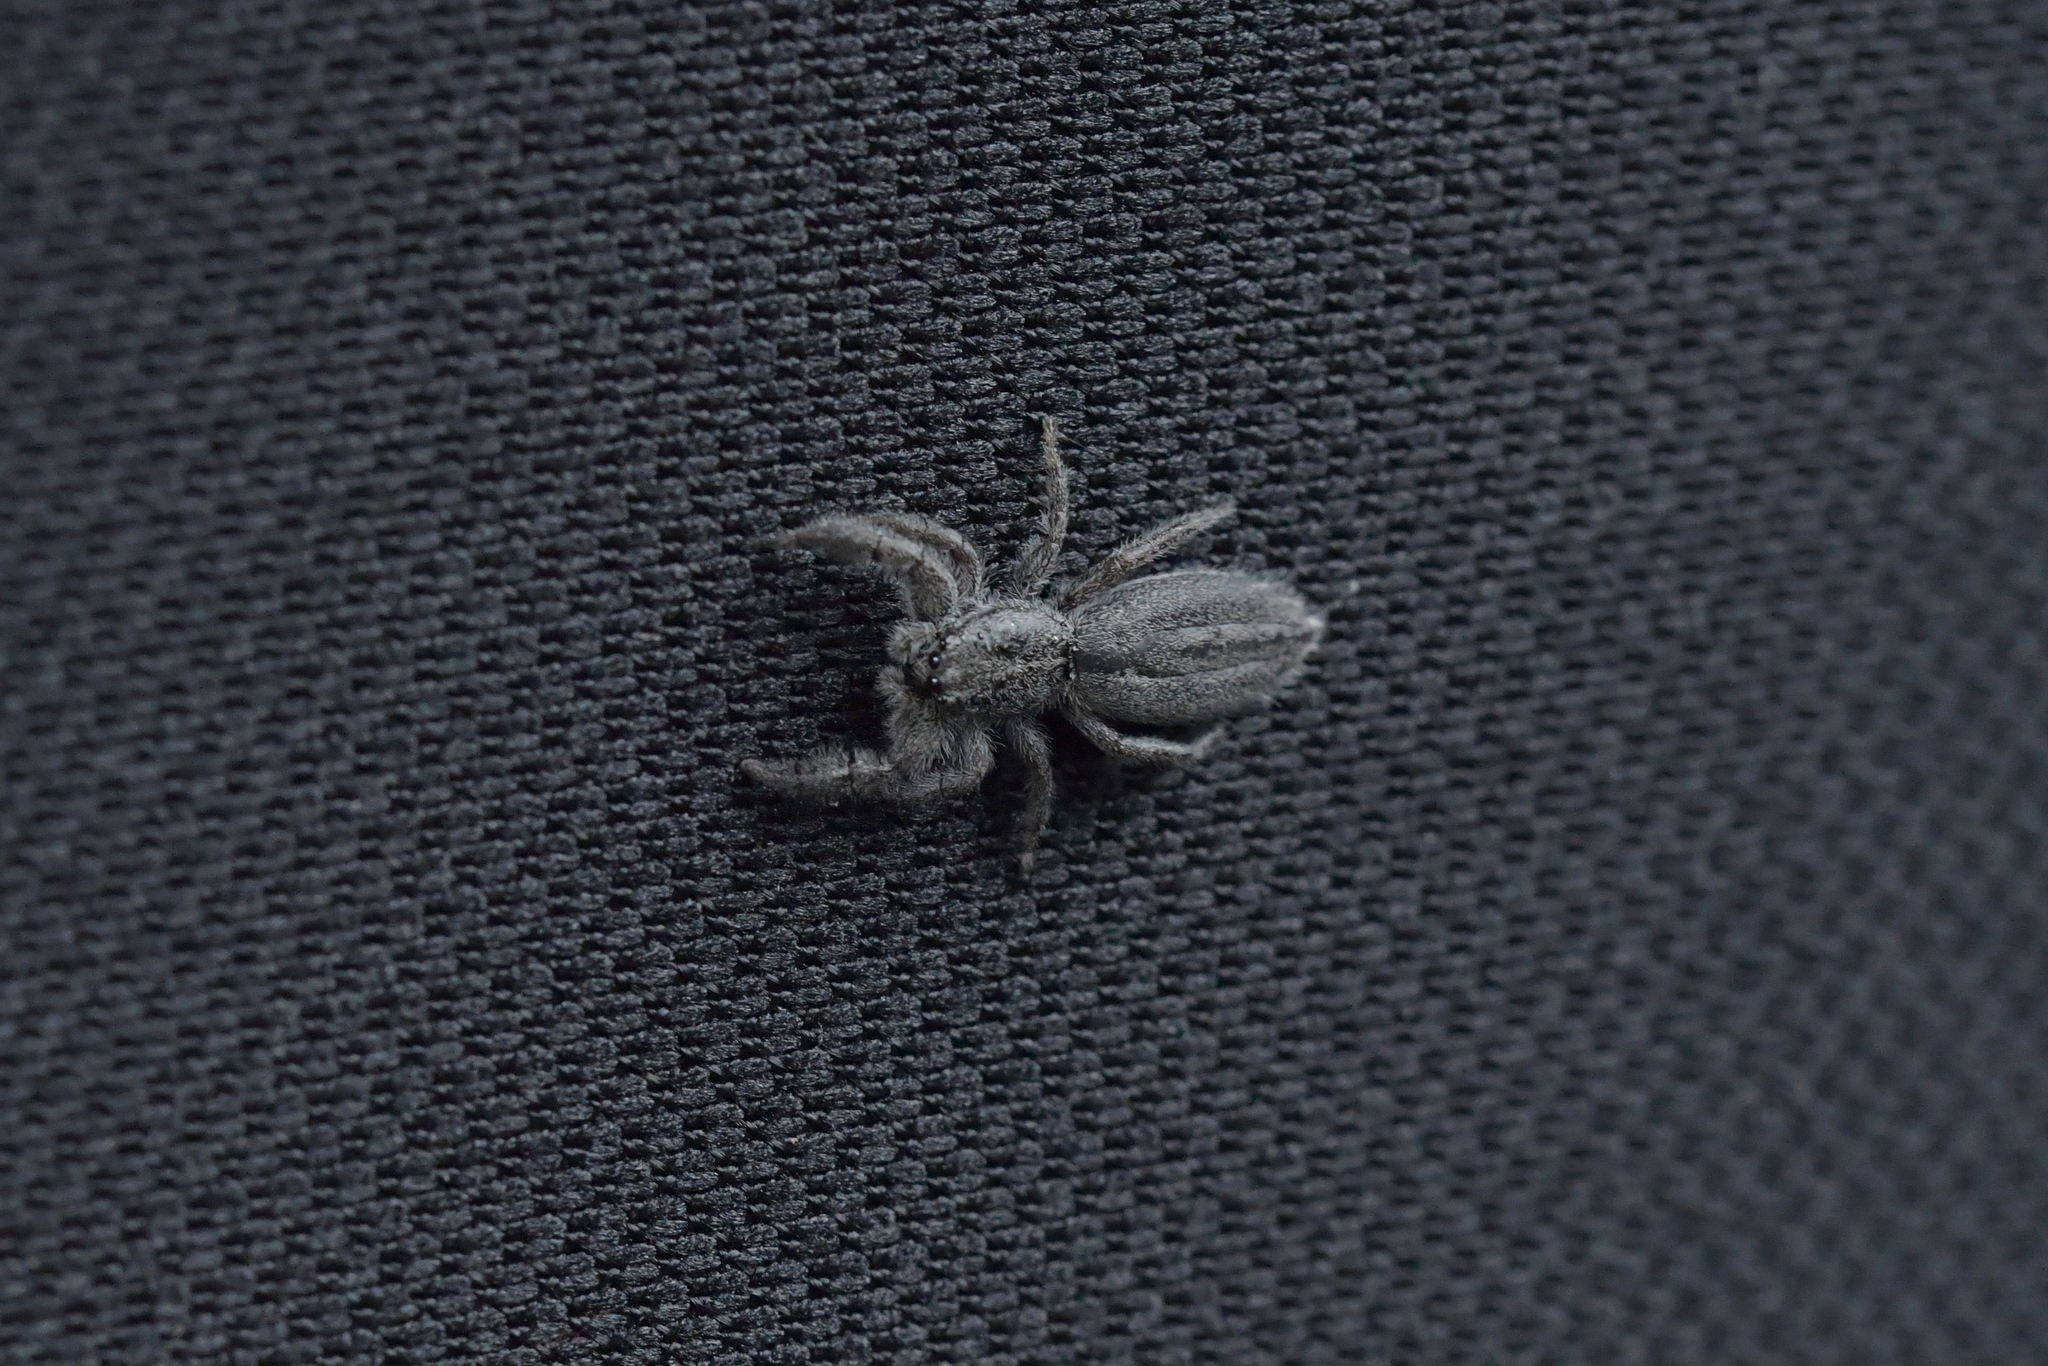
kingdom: Animalia
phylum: Arthropoda
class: Arachnida
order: Araneae
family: Salticidae
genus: Holoplatys
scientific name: Holoplatys apressus
